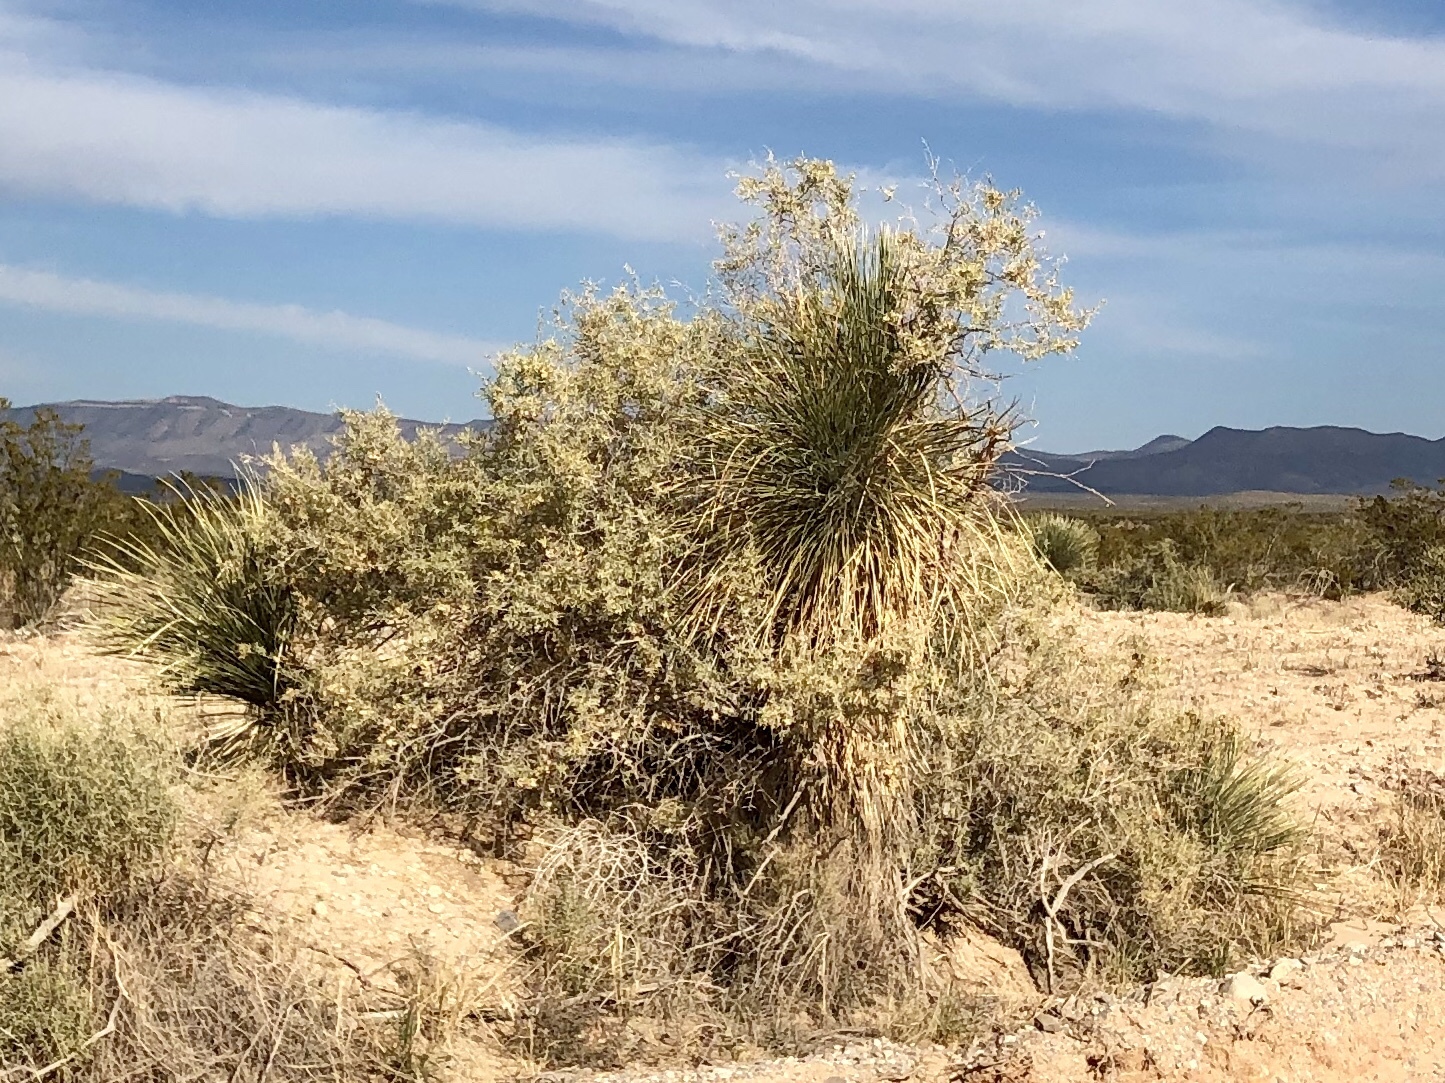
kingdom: Plantae
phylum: Tracheophyta
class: Magnoliopsida
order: Caryophyllales
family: Amaranthaceae
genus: Atriplex
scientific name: Atriplex canescens
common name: Four-wing saltbush
